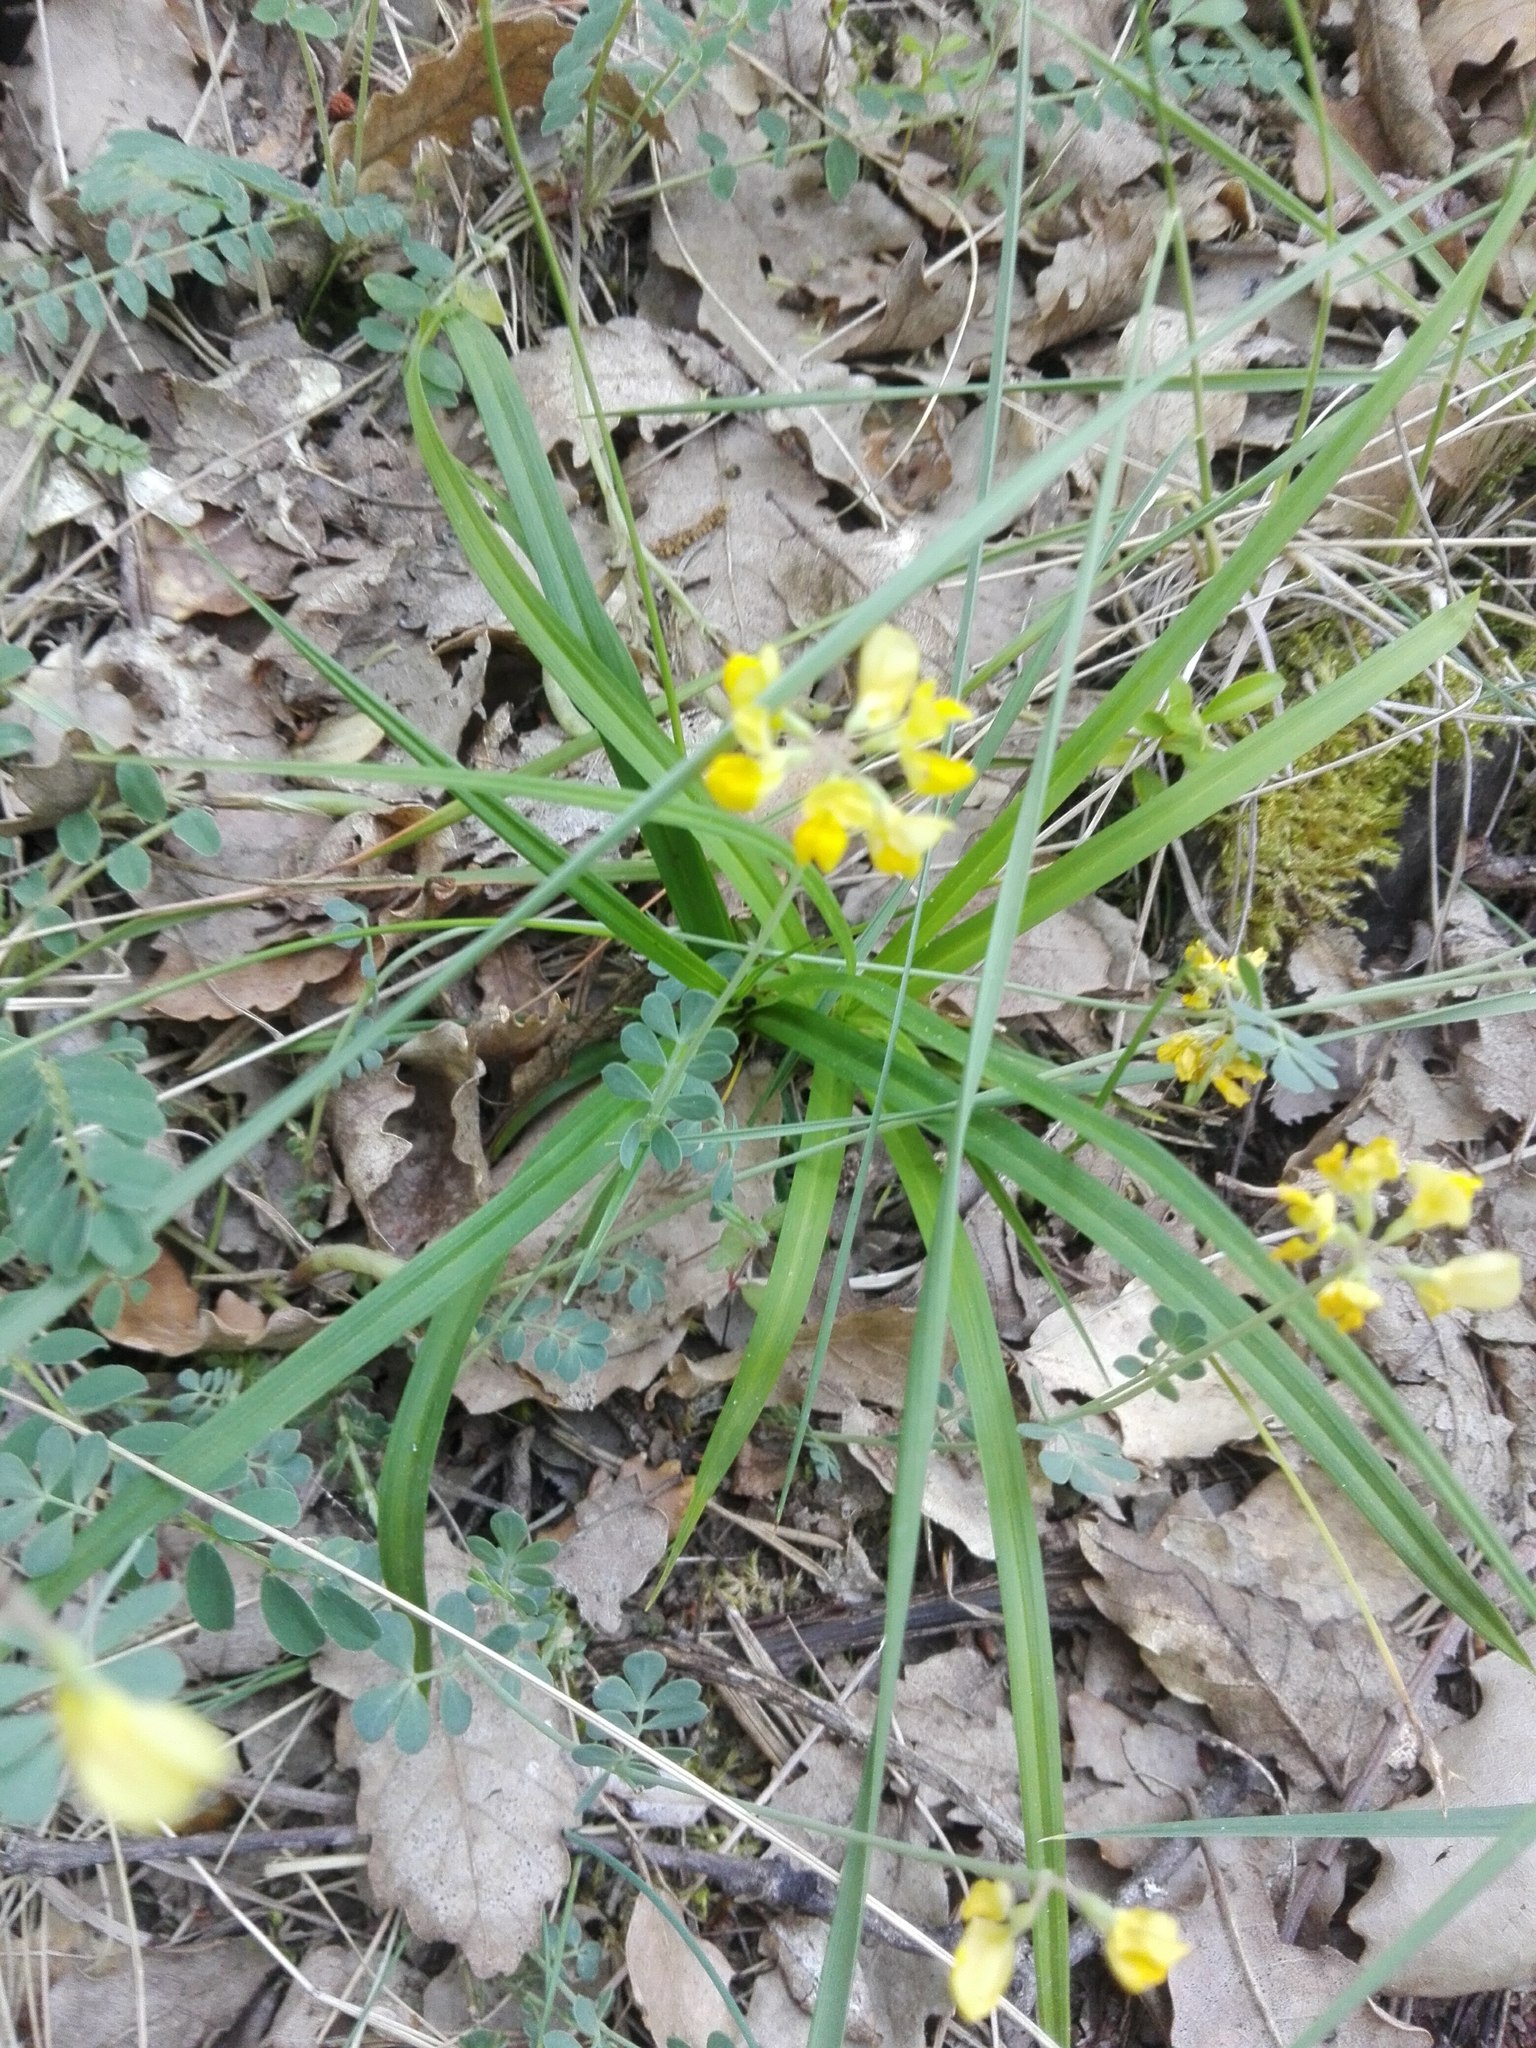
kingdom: Plantae
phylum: Tracheophyta
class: Magnoliopsida
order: Fabales
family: Fabaceae
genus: Hippocrepis
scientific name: Hippocrepis comosa
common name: Horseshoe vetch
